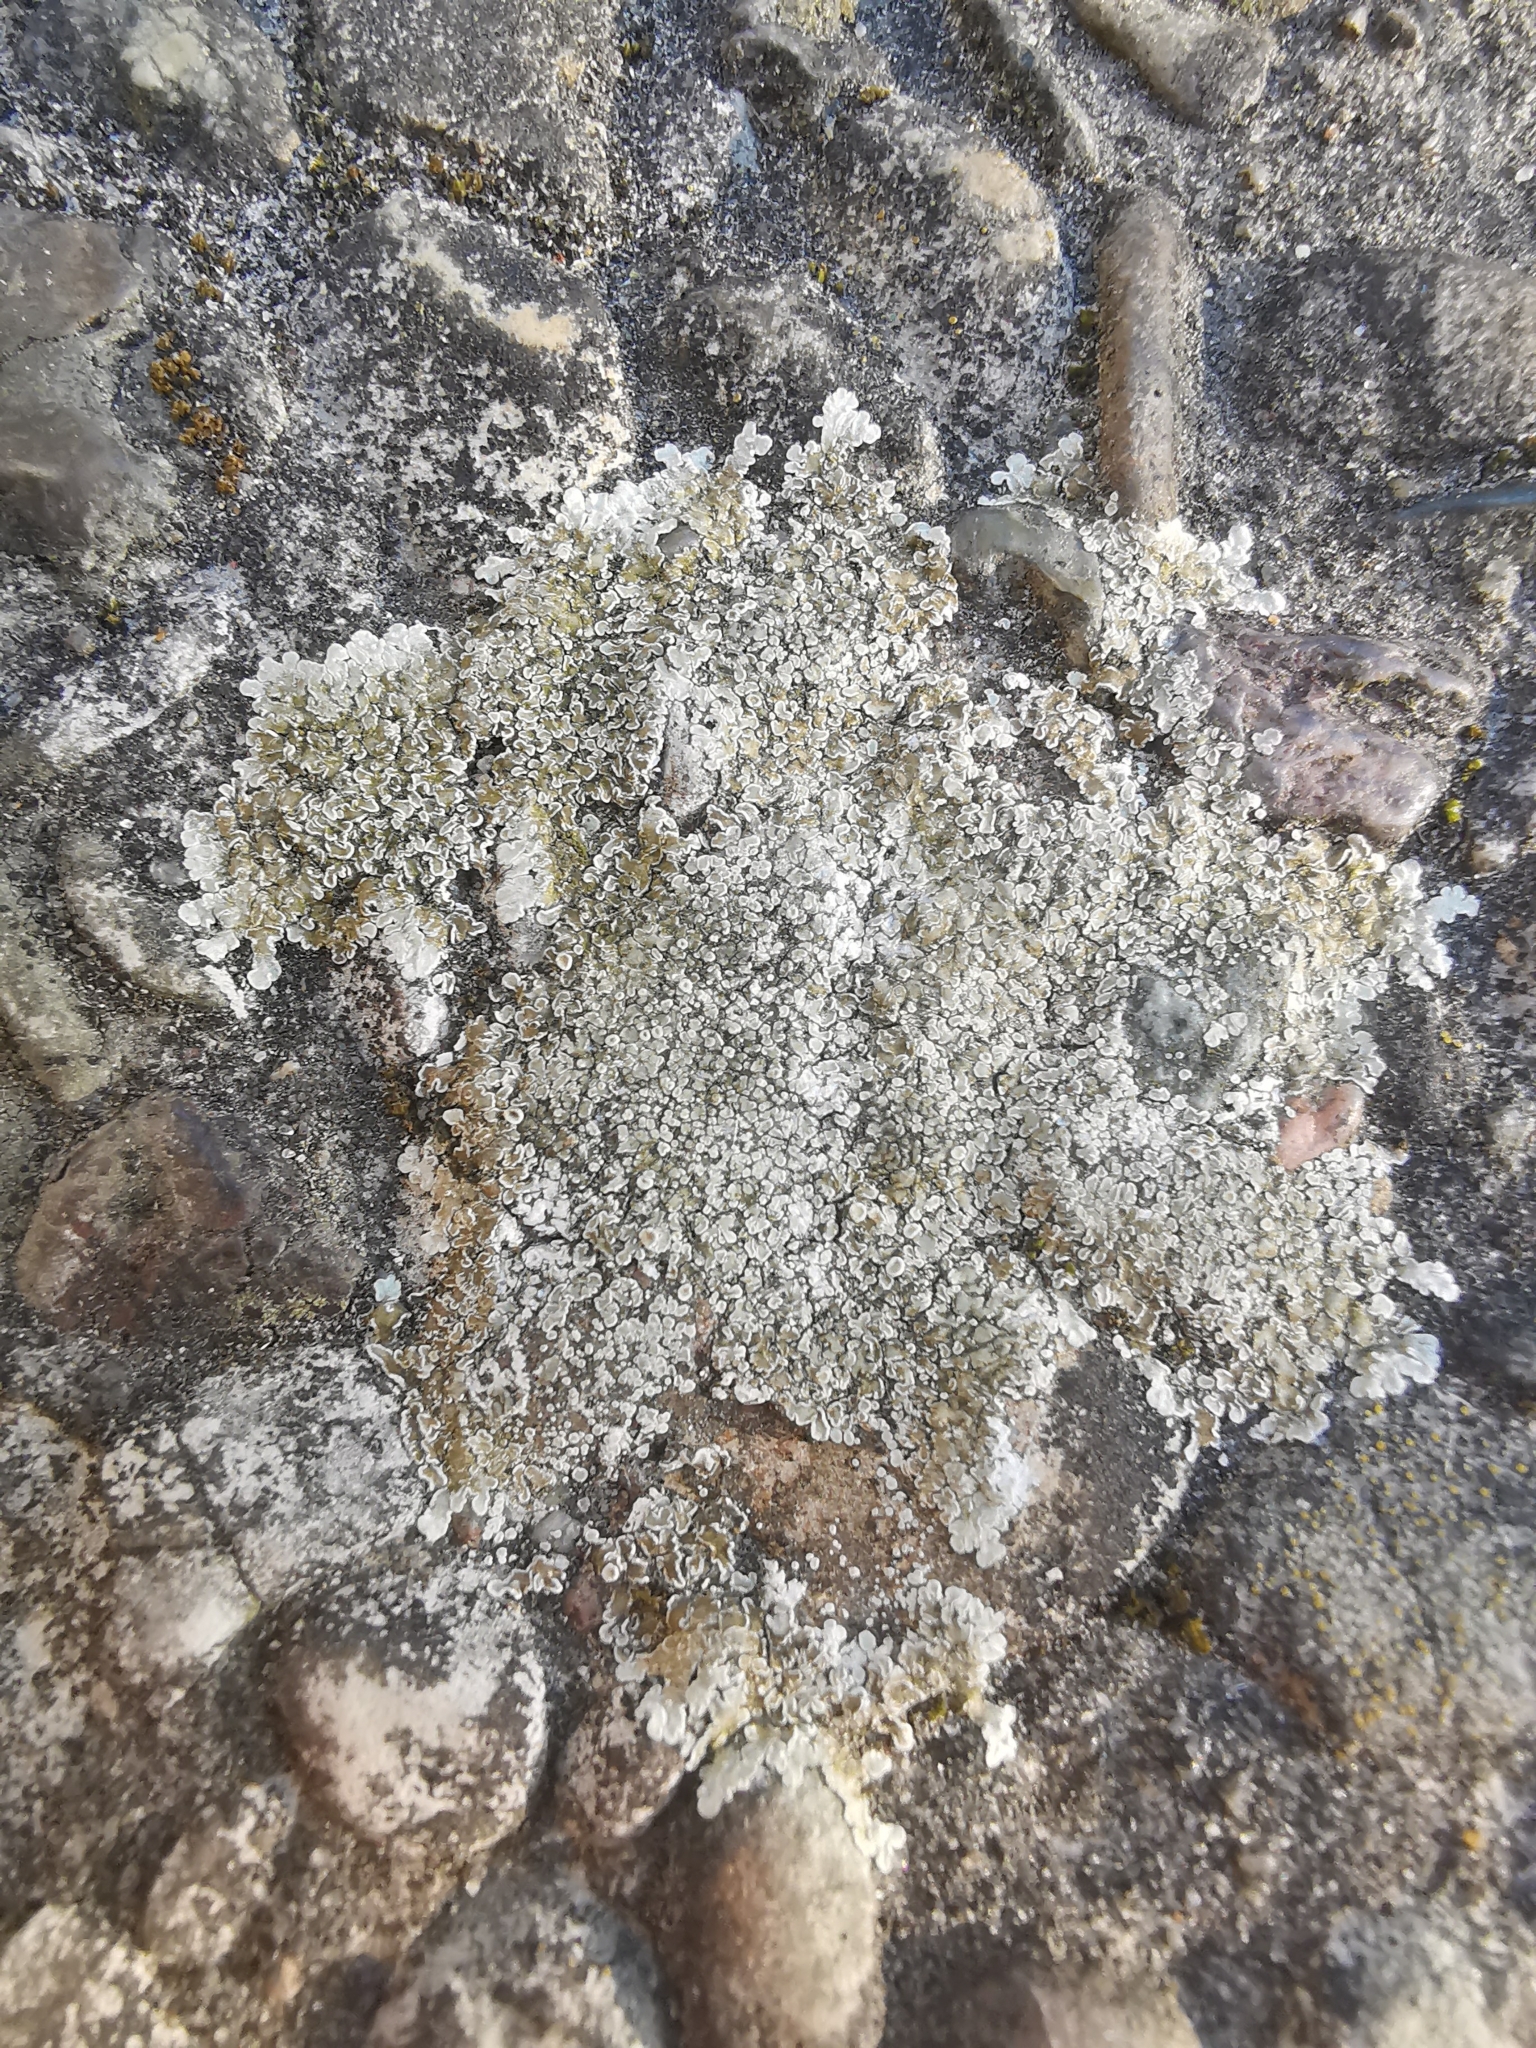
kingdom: Fungi
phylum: Ascomycota
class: Lecanoromycetes
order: Lecanorales
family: Lecanoraceae
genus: Protoparmeliopsis
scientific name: Protoparmeliopsis muralis
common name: Stonewall rim lichen
